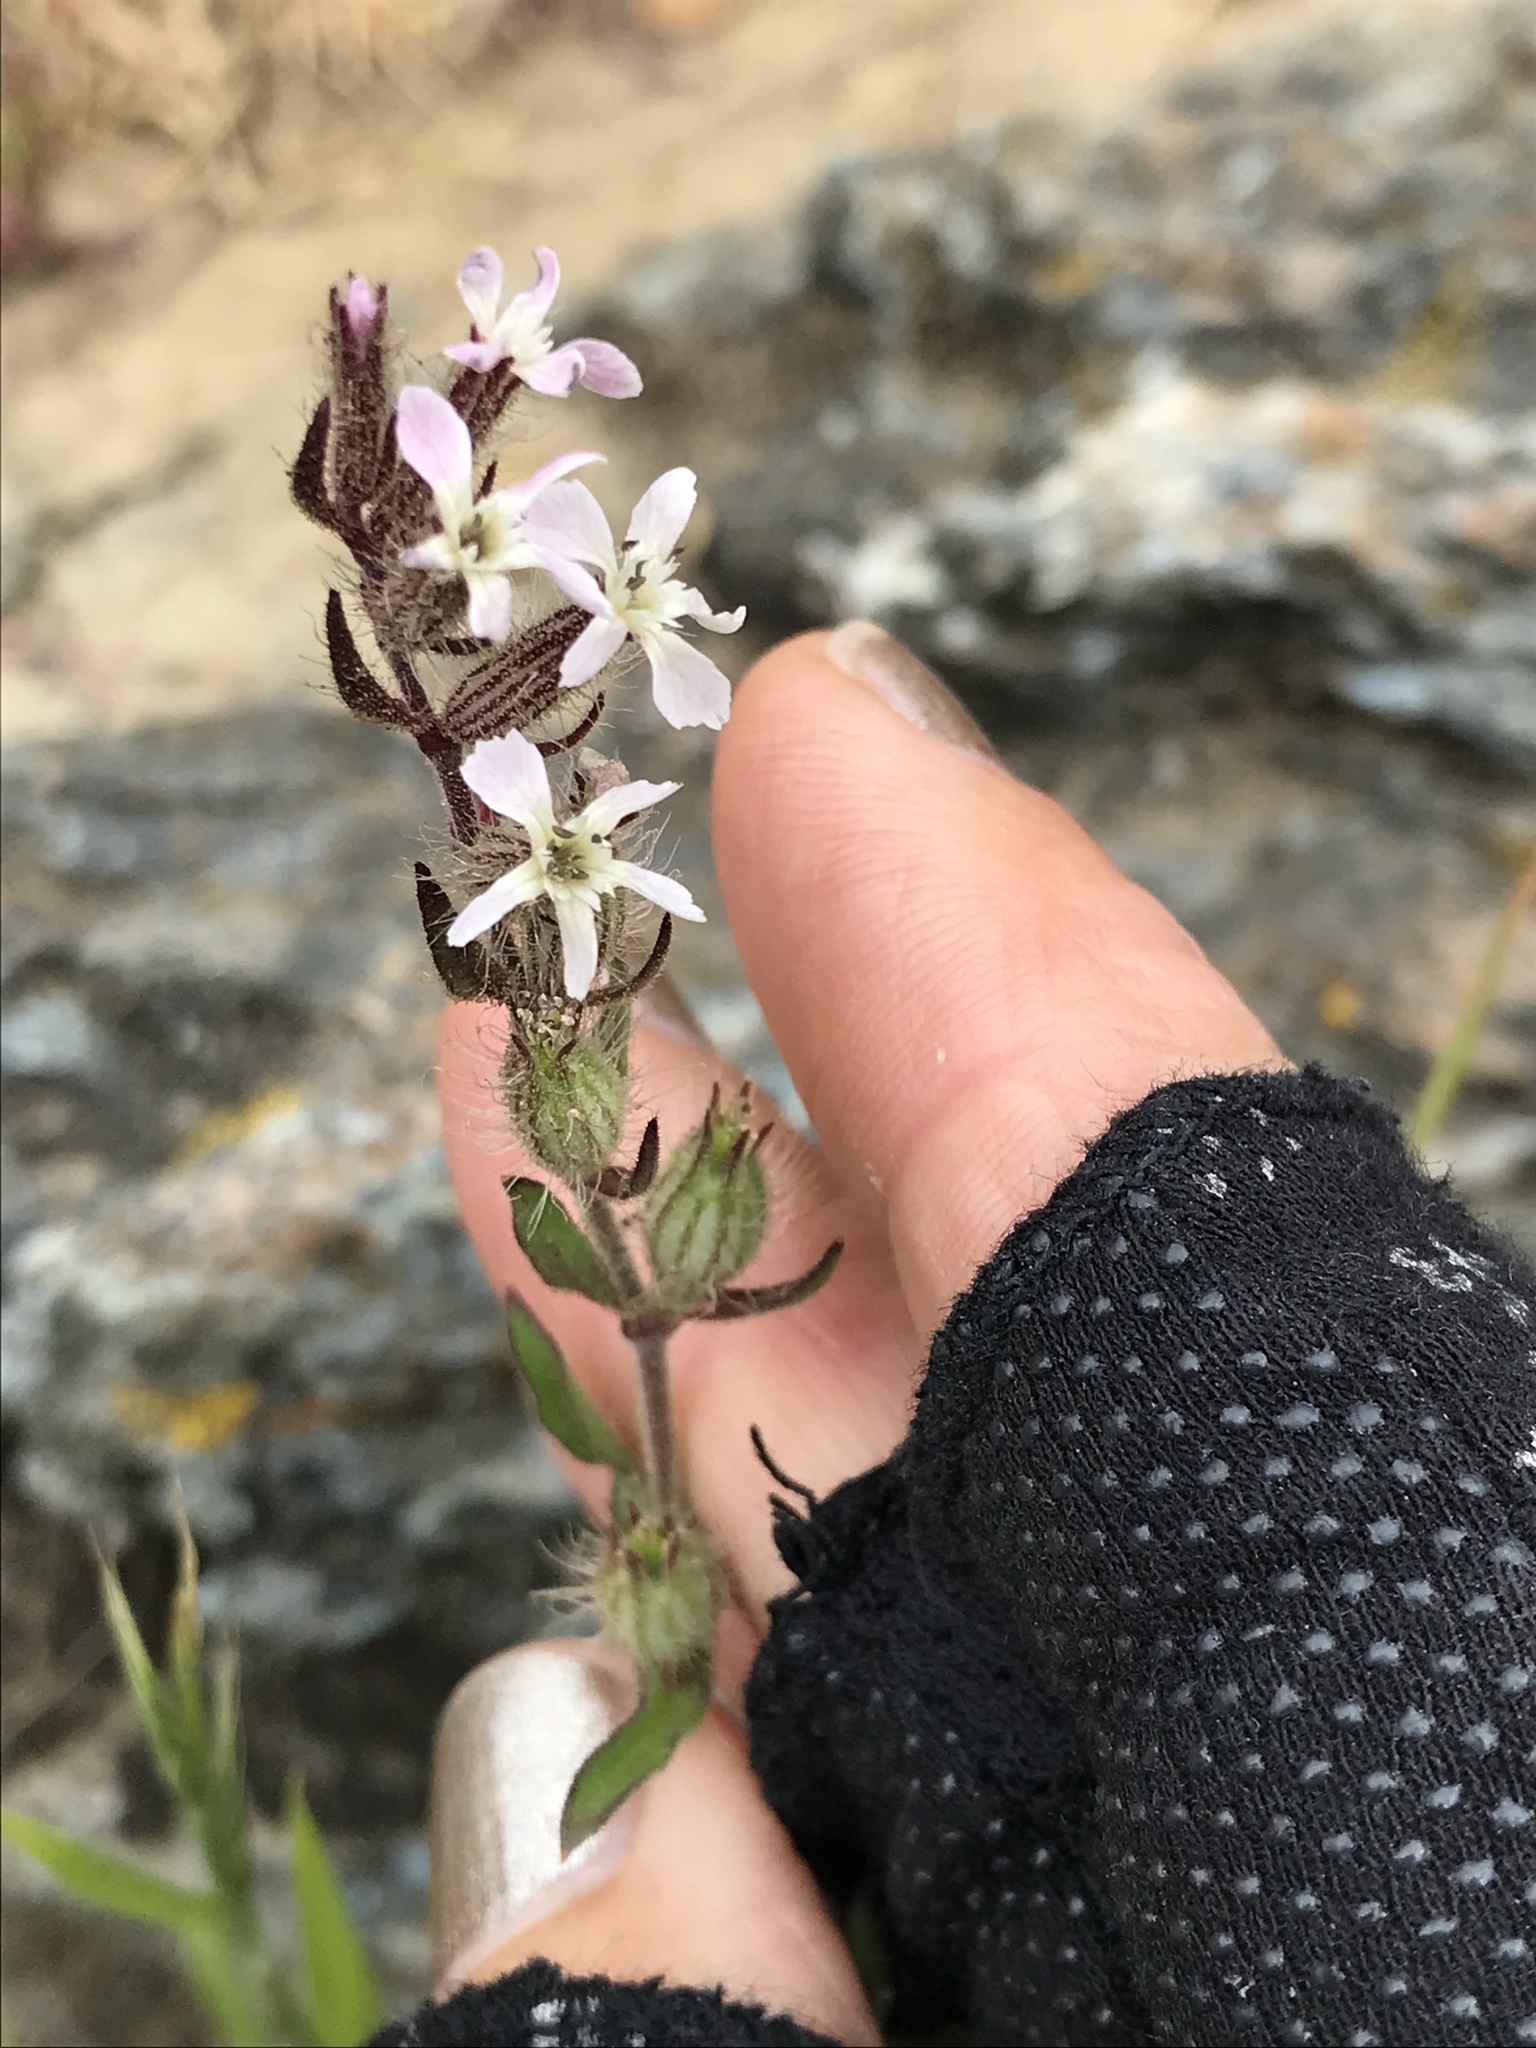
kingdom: Plantae
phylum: Tracheophyta
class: Magnoliopsida
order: Caryophyllales
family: Caryophyllaceae
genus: Silene
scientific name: Silene gallica
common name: Small-flowered catchfly
